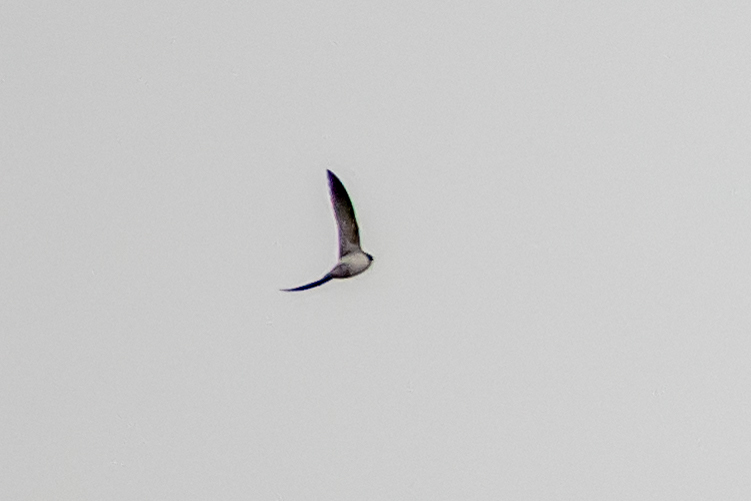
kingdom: Animalia
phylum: Chordata
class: Aves
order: Passeriformes
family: Hirundinidae
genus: Delichon
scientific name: Delichon urbicum
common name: Common house martin
